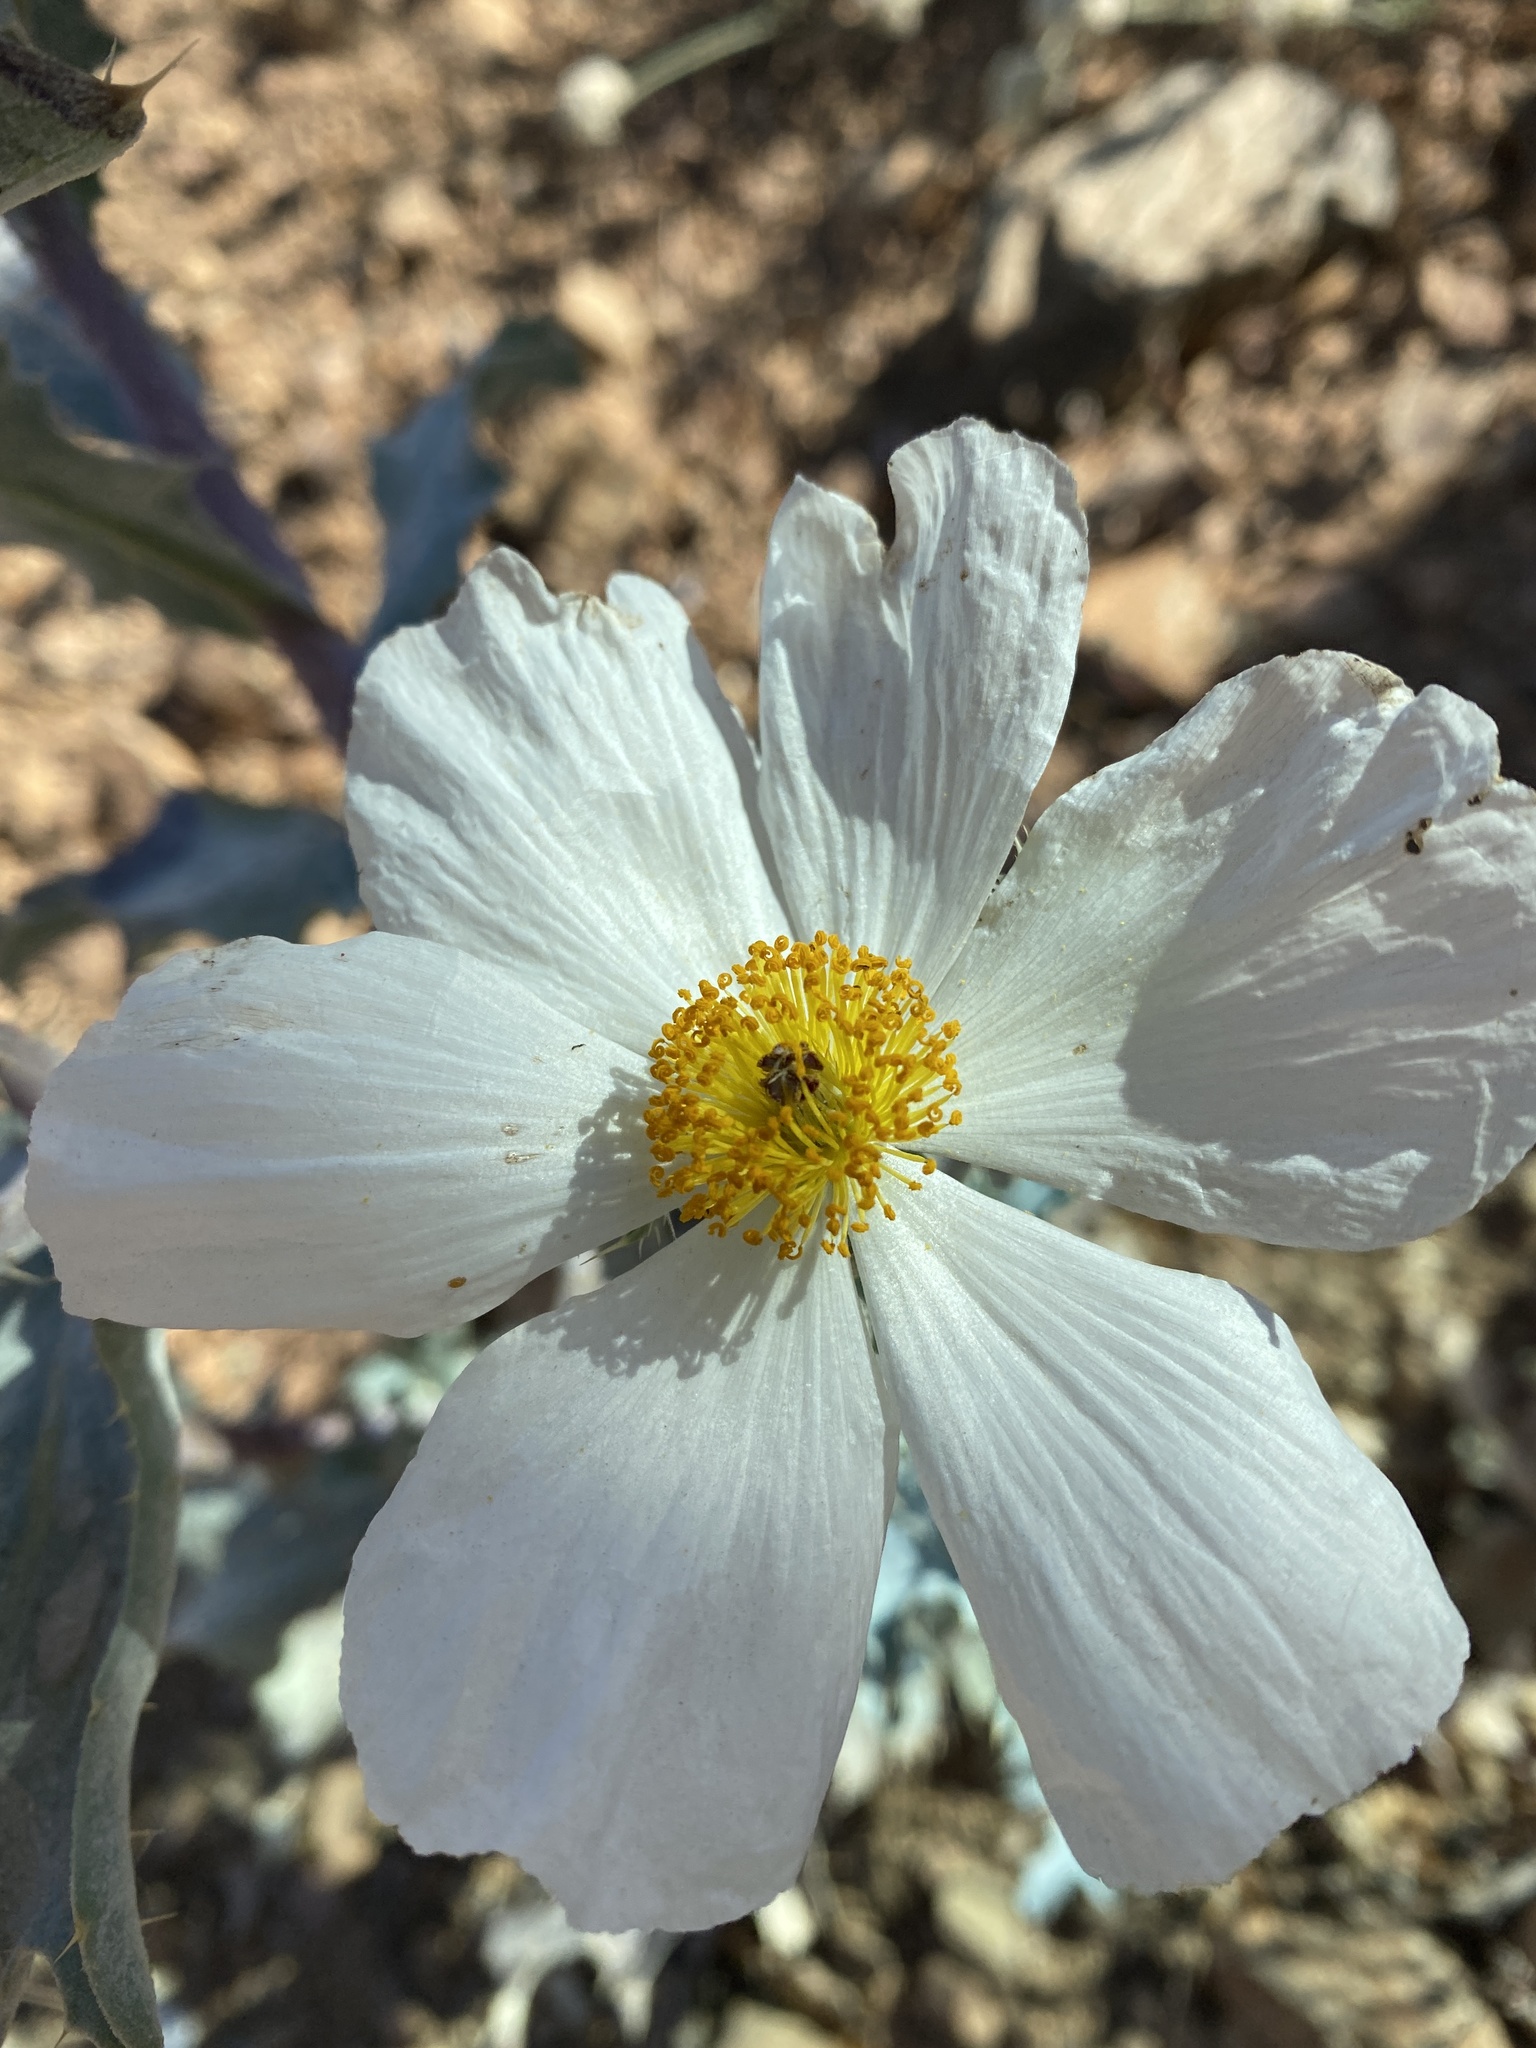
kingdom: Plantae
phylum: Tracheophyta
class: Magnoliopsida
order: Ranunculales
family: Papaveraceae
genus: Argemone
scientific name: Argemone munita
